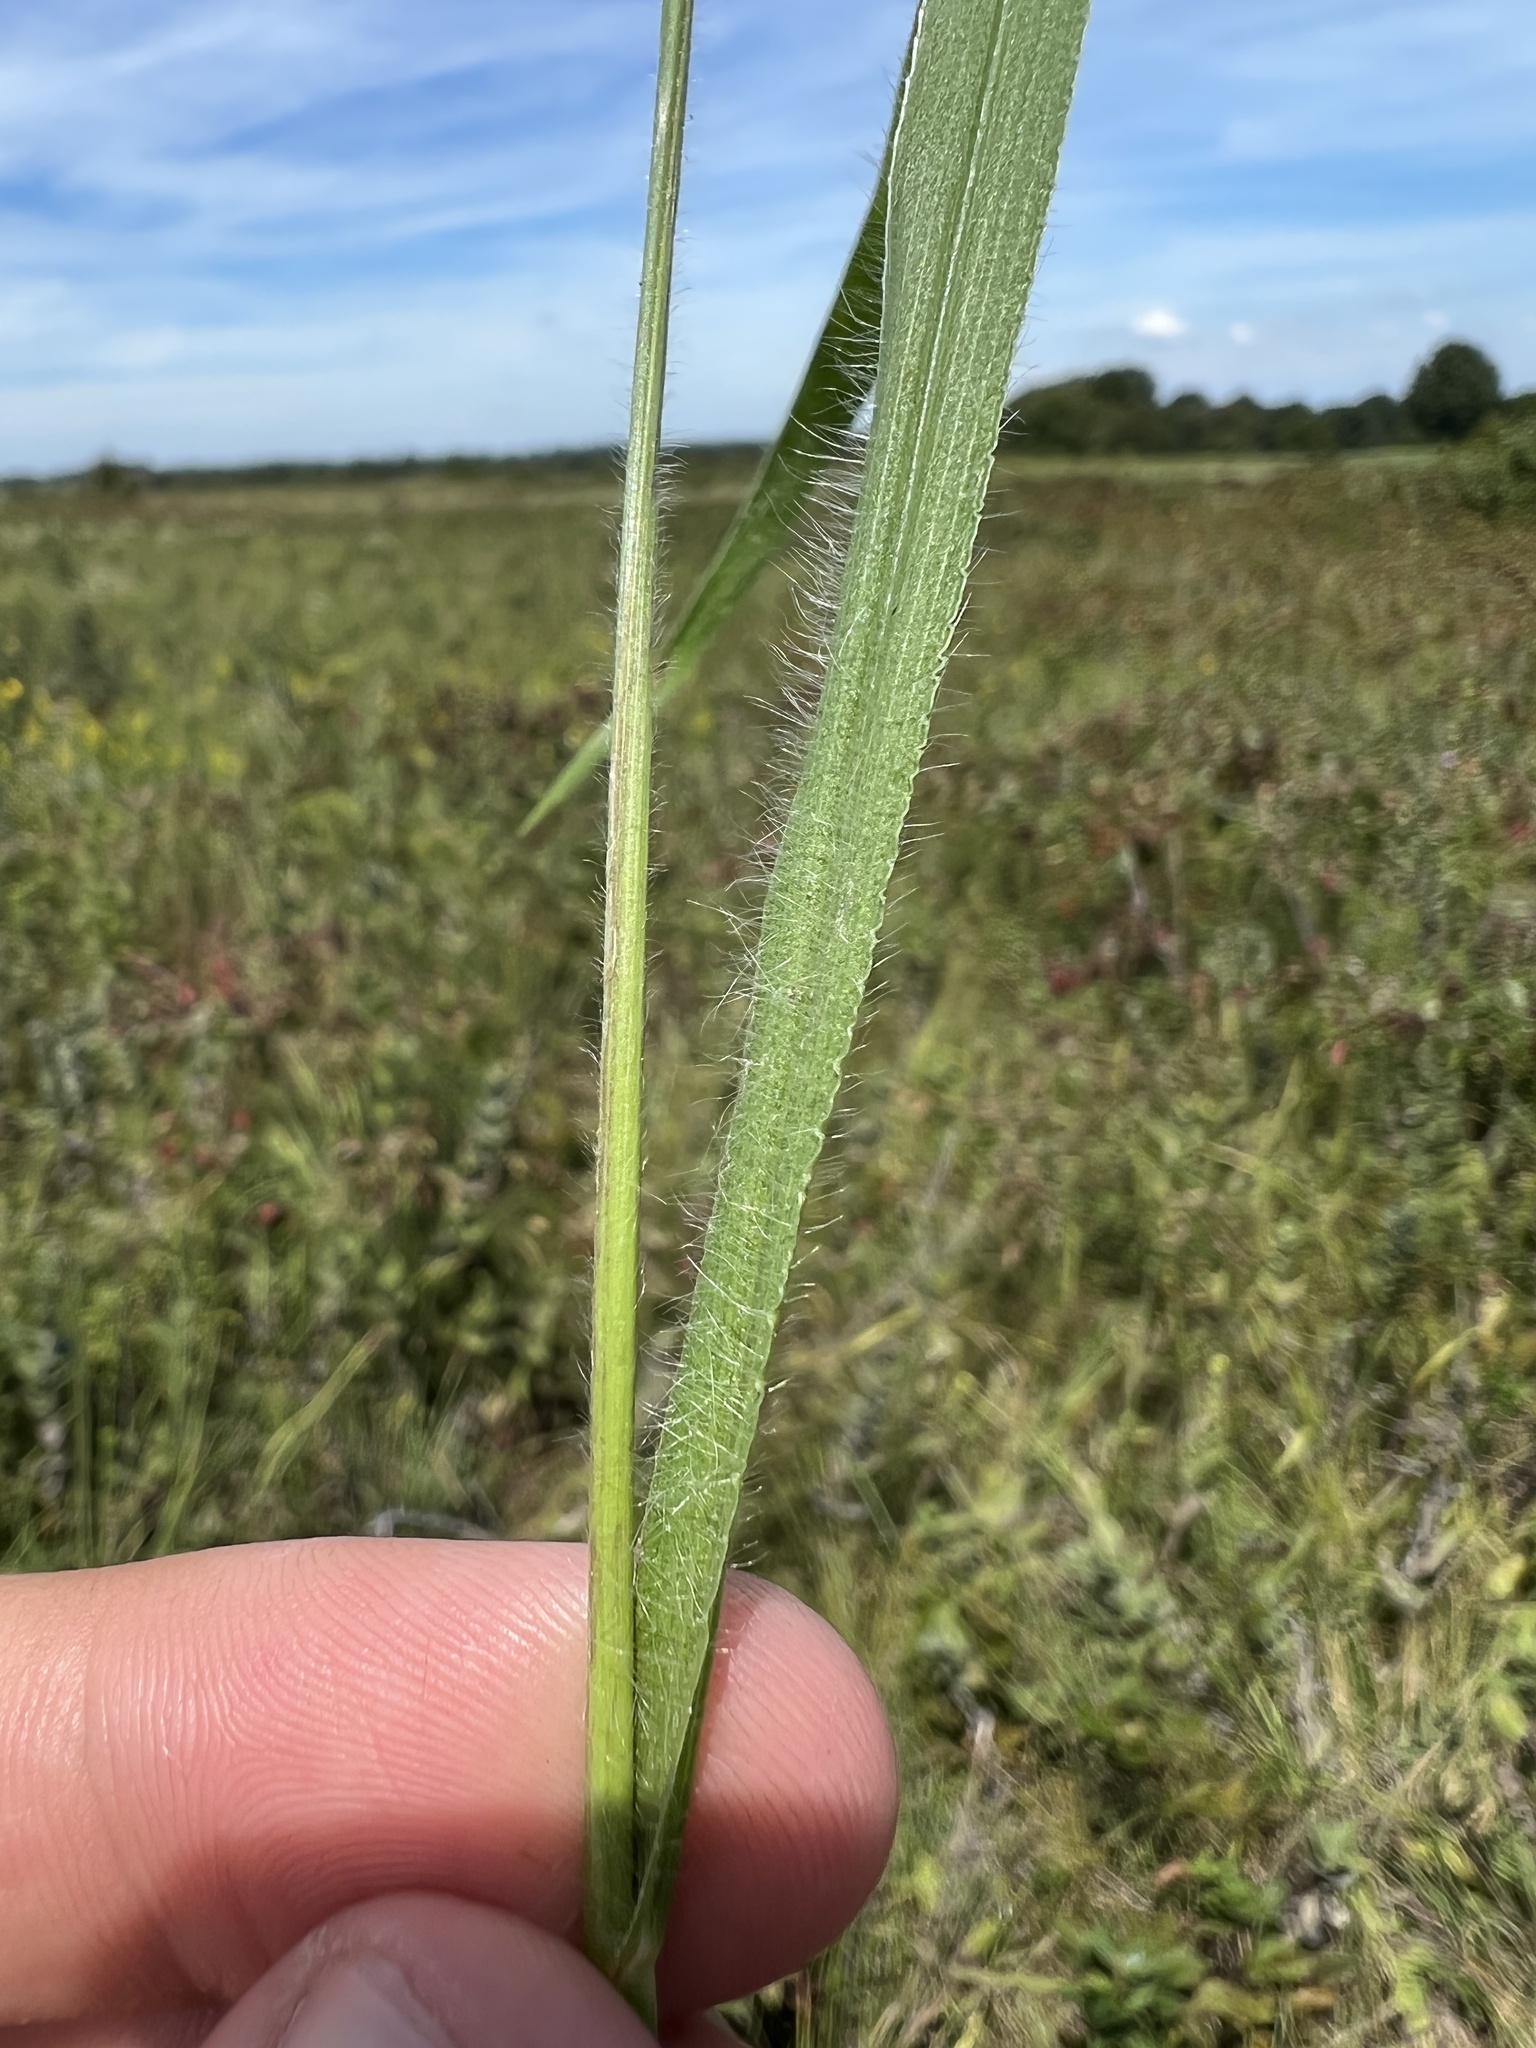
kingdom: Plantae
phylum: Tracheophyta
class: Liliopsida
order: Poales
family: Poaceae
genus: Paspalum
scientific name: Paspalum setaceum
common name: Slender paspalum
